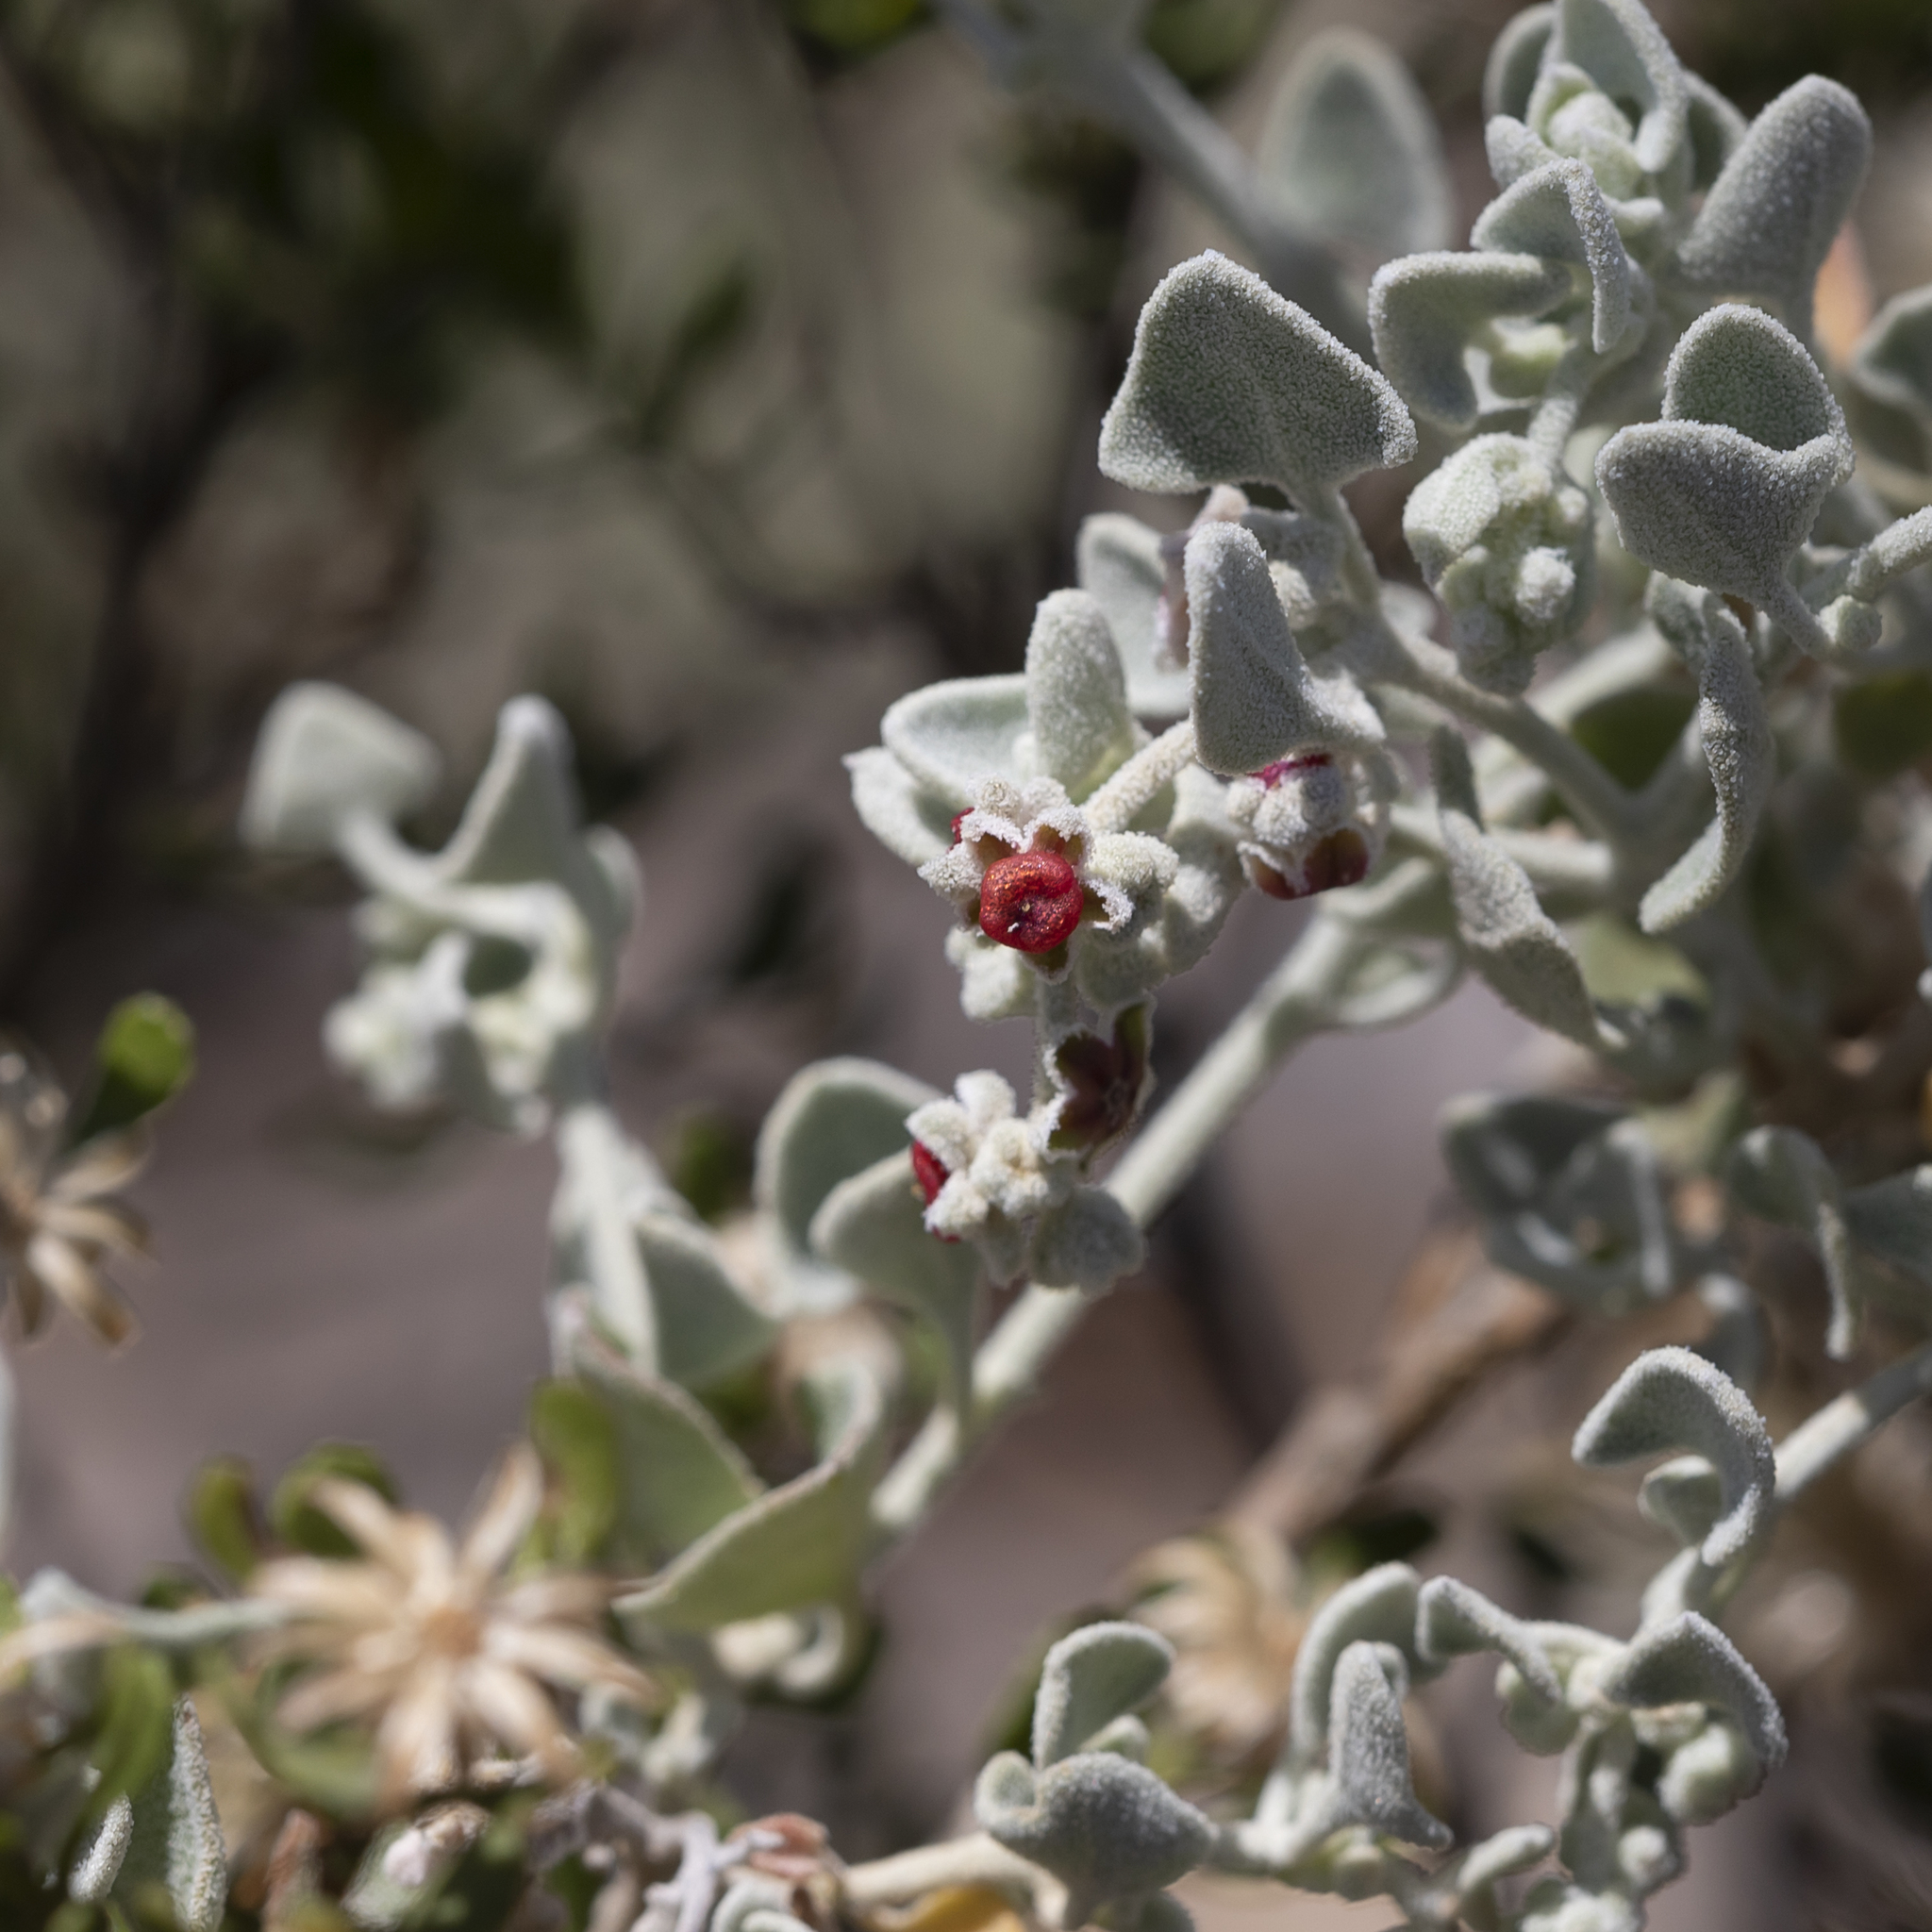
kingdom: Plantae
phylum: Tracheophyta
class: Magnoliopsida
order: Caryophyllales
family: Amaranthaceae
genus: Chenopodium
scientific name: Chenopodium curvispicatum
